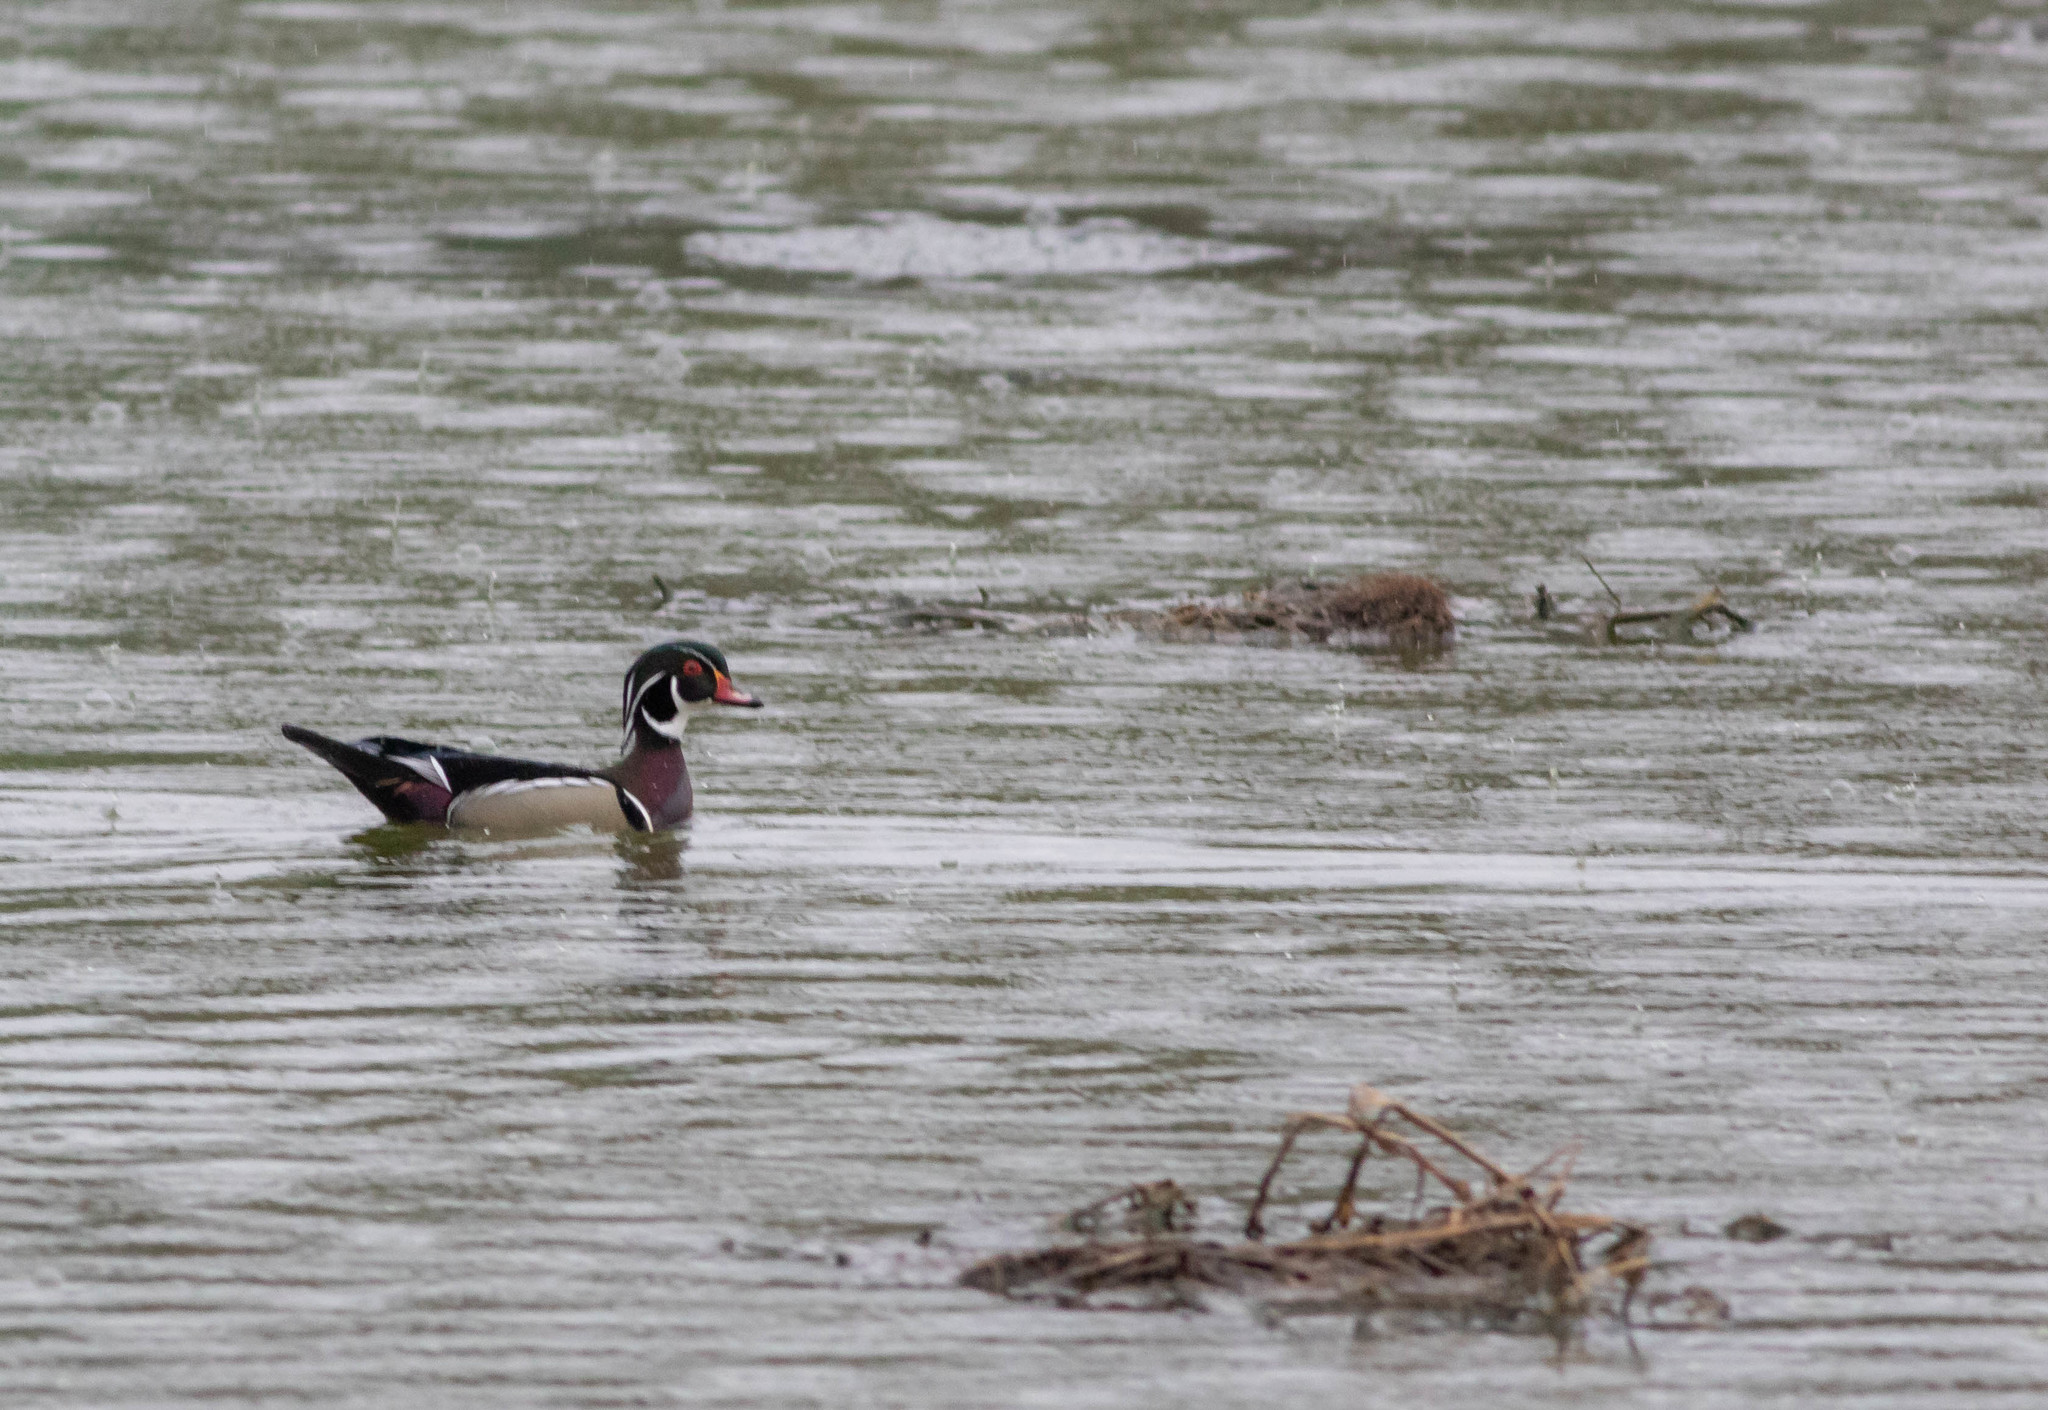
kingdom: Animalia
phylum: Chordata
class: Aves
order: Anseriformes
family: Anatidae
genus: Aix
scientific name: Aix sponsa
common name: Wood duck
